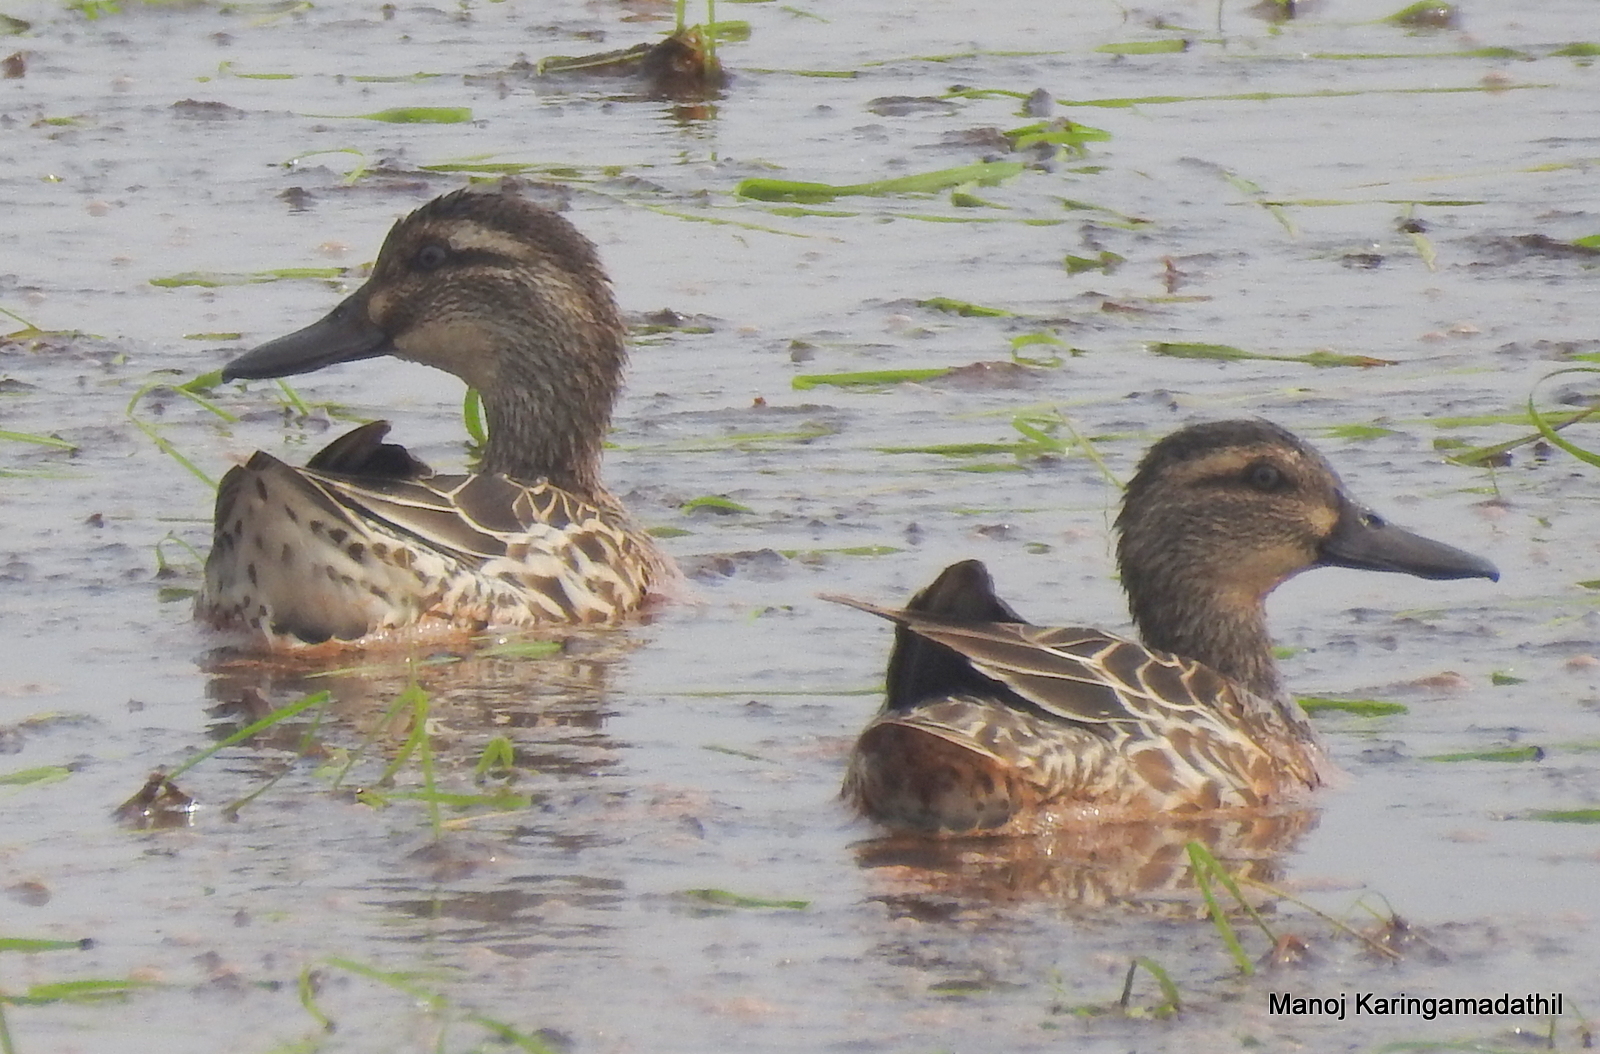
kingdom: Animalia
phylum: Chordata
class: Aves
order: Anseriformes
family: Anatidae
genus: Spatula
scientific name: Spatula querquedula
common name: Garganey
